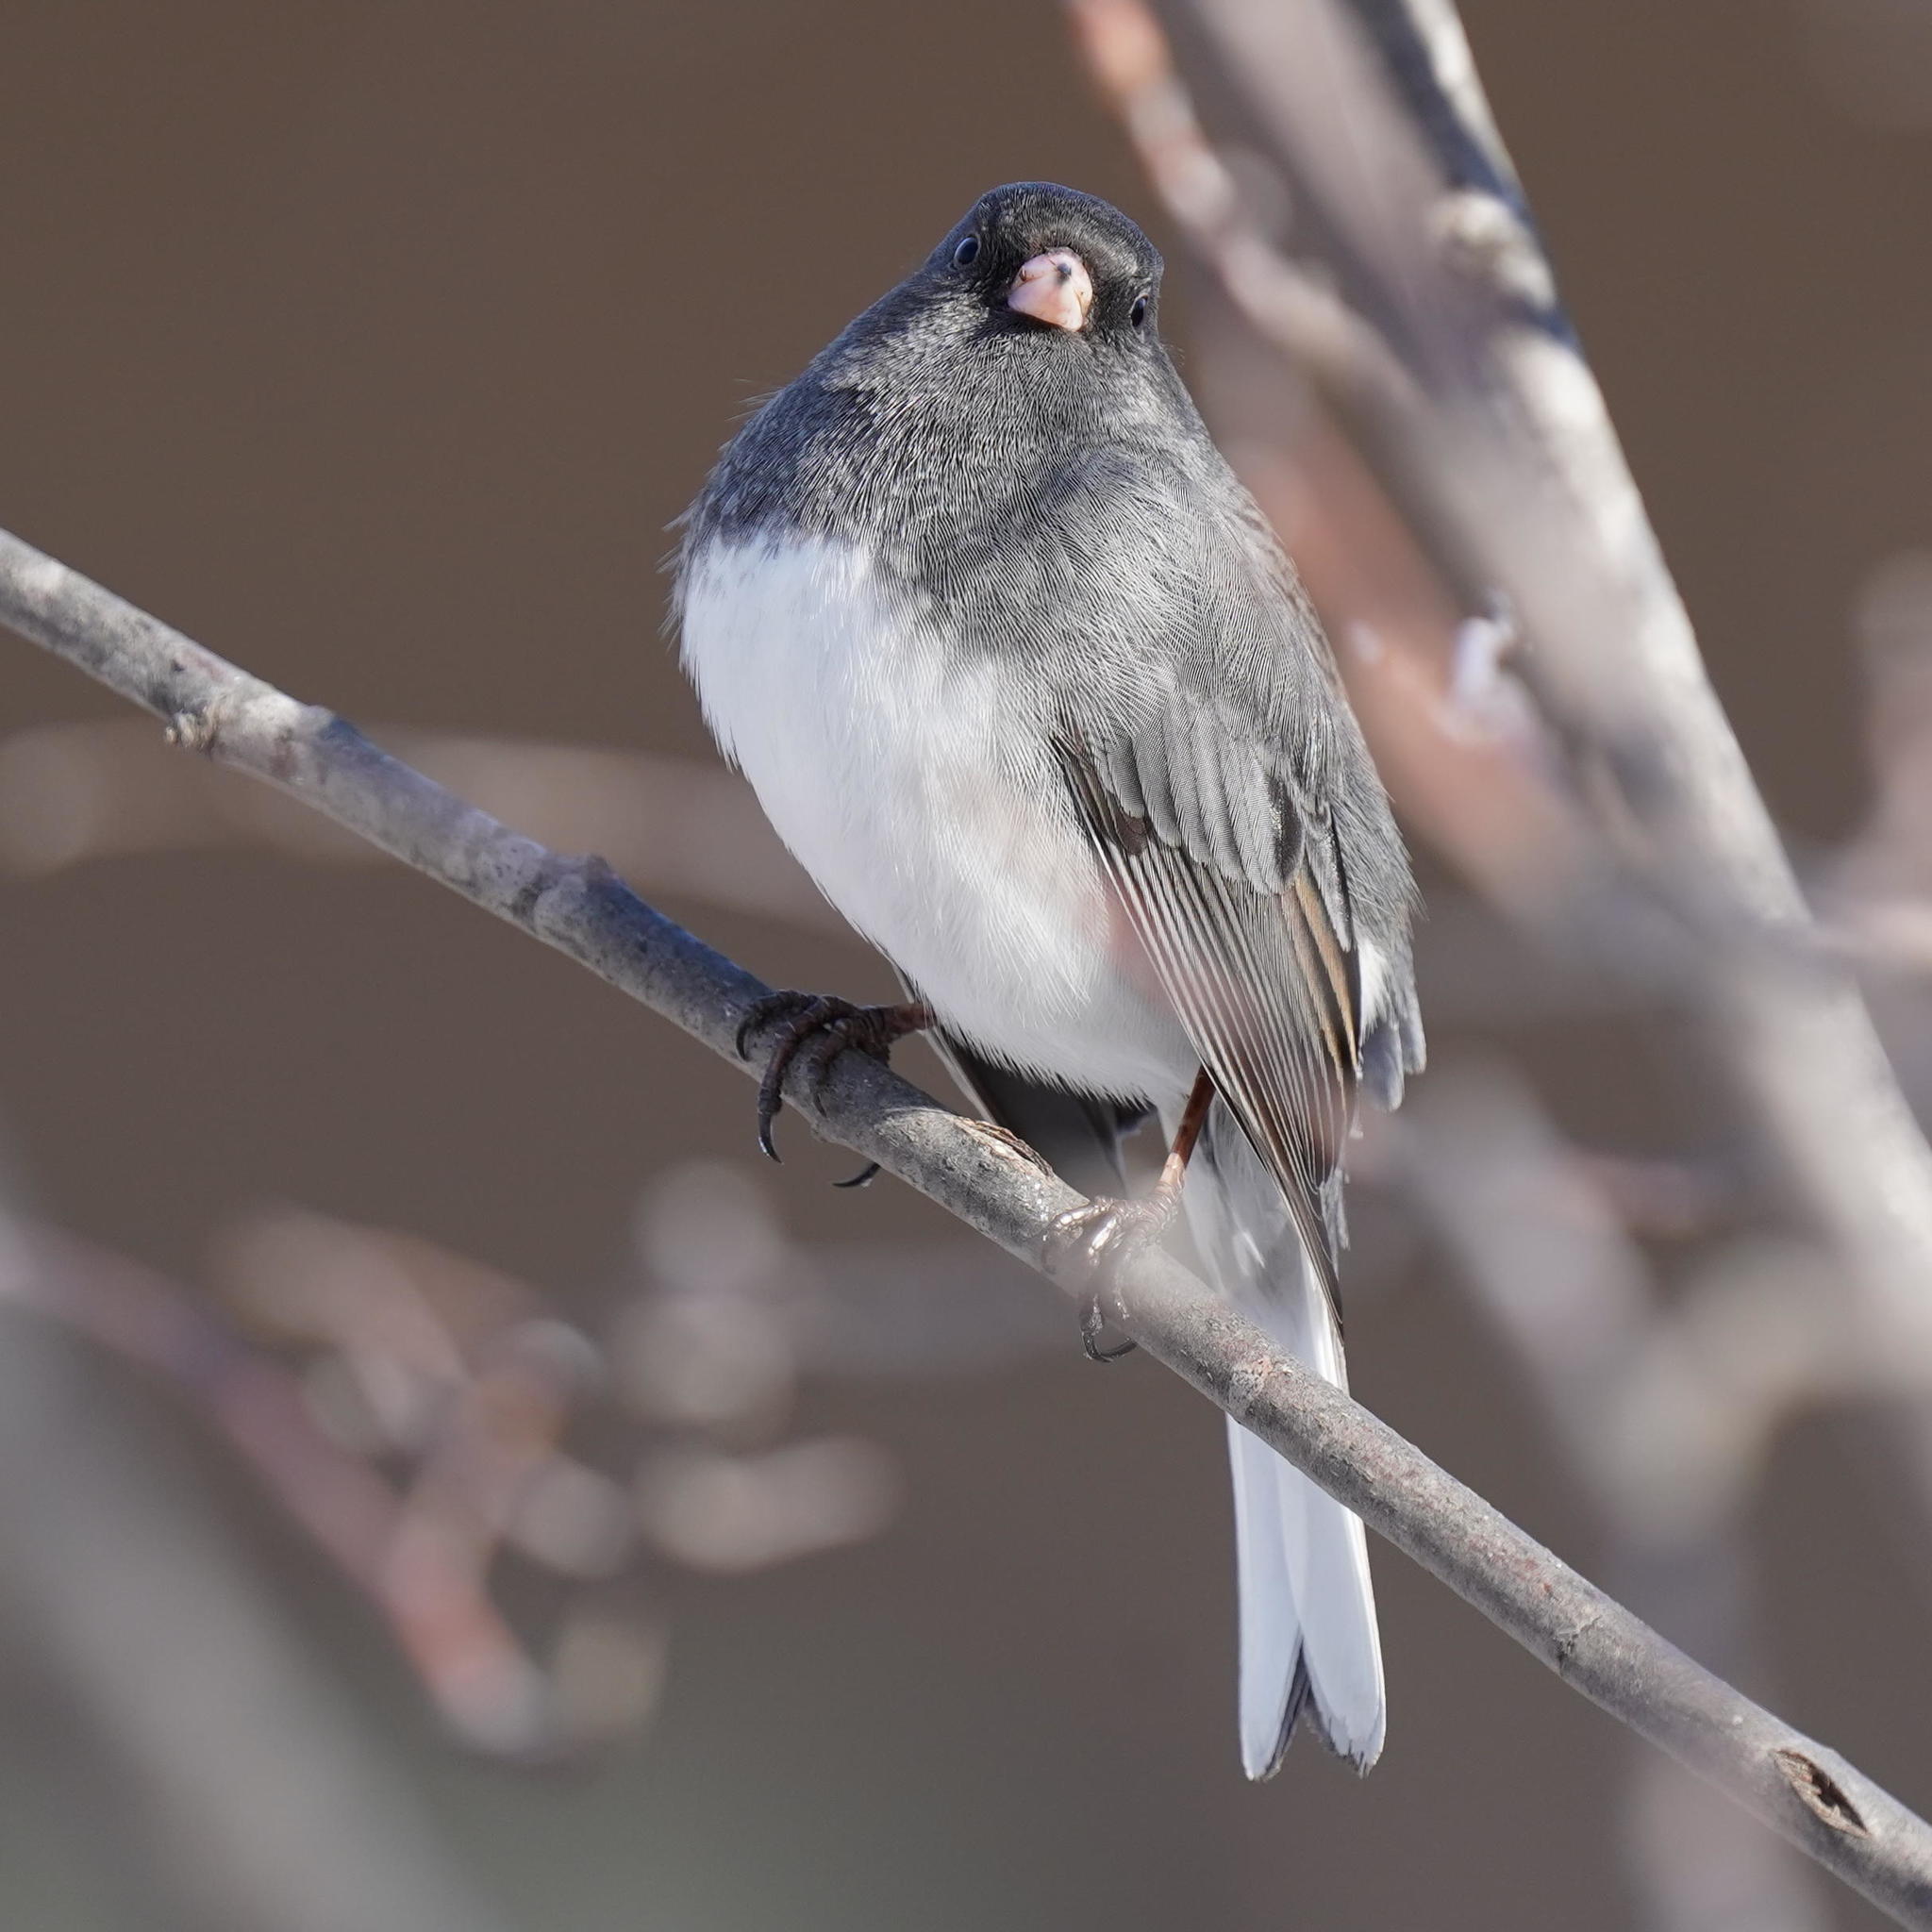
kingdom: Animalia
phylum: Chordata
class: Aves
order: Passeriformes
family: Passerellidae
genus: Junco
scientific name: Junco hyemalis
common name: Dark-eyed junco
